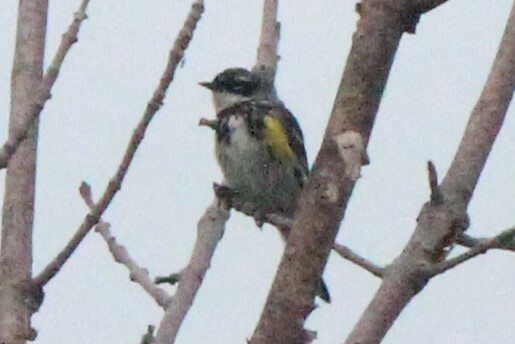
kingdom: Animalia
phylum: Chordata
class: Aves
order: Passeriformes
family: Parulidae
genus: Setophaga
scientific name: Setophaga coronata
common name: Myrtle warbler
